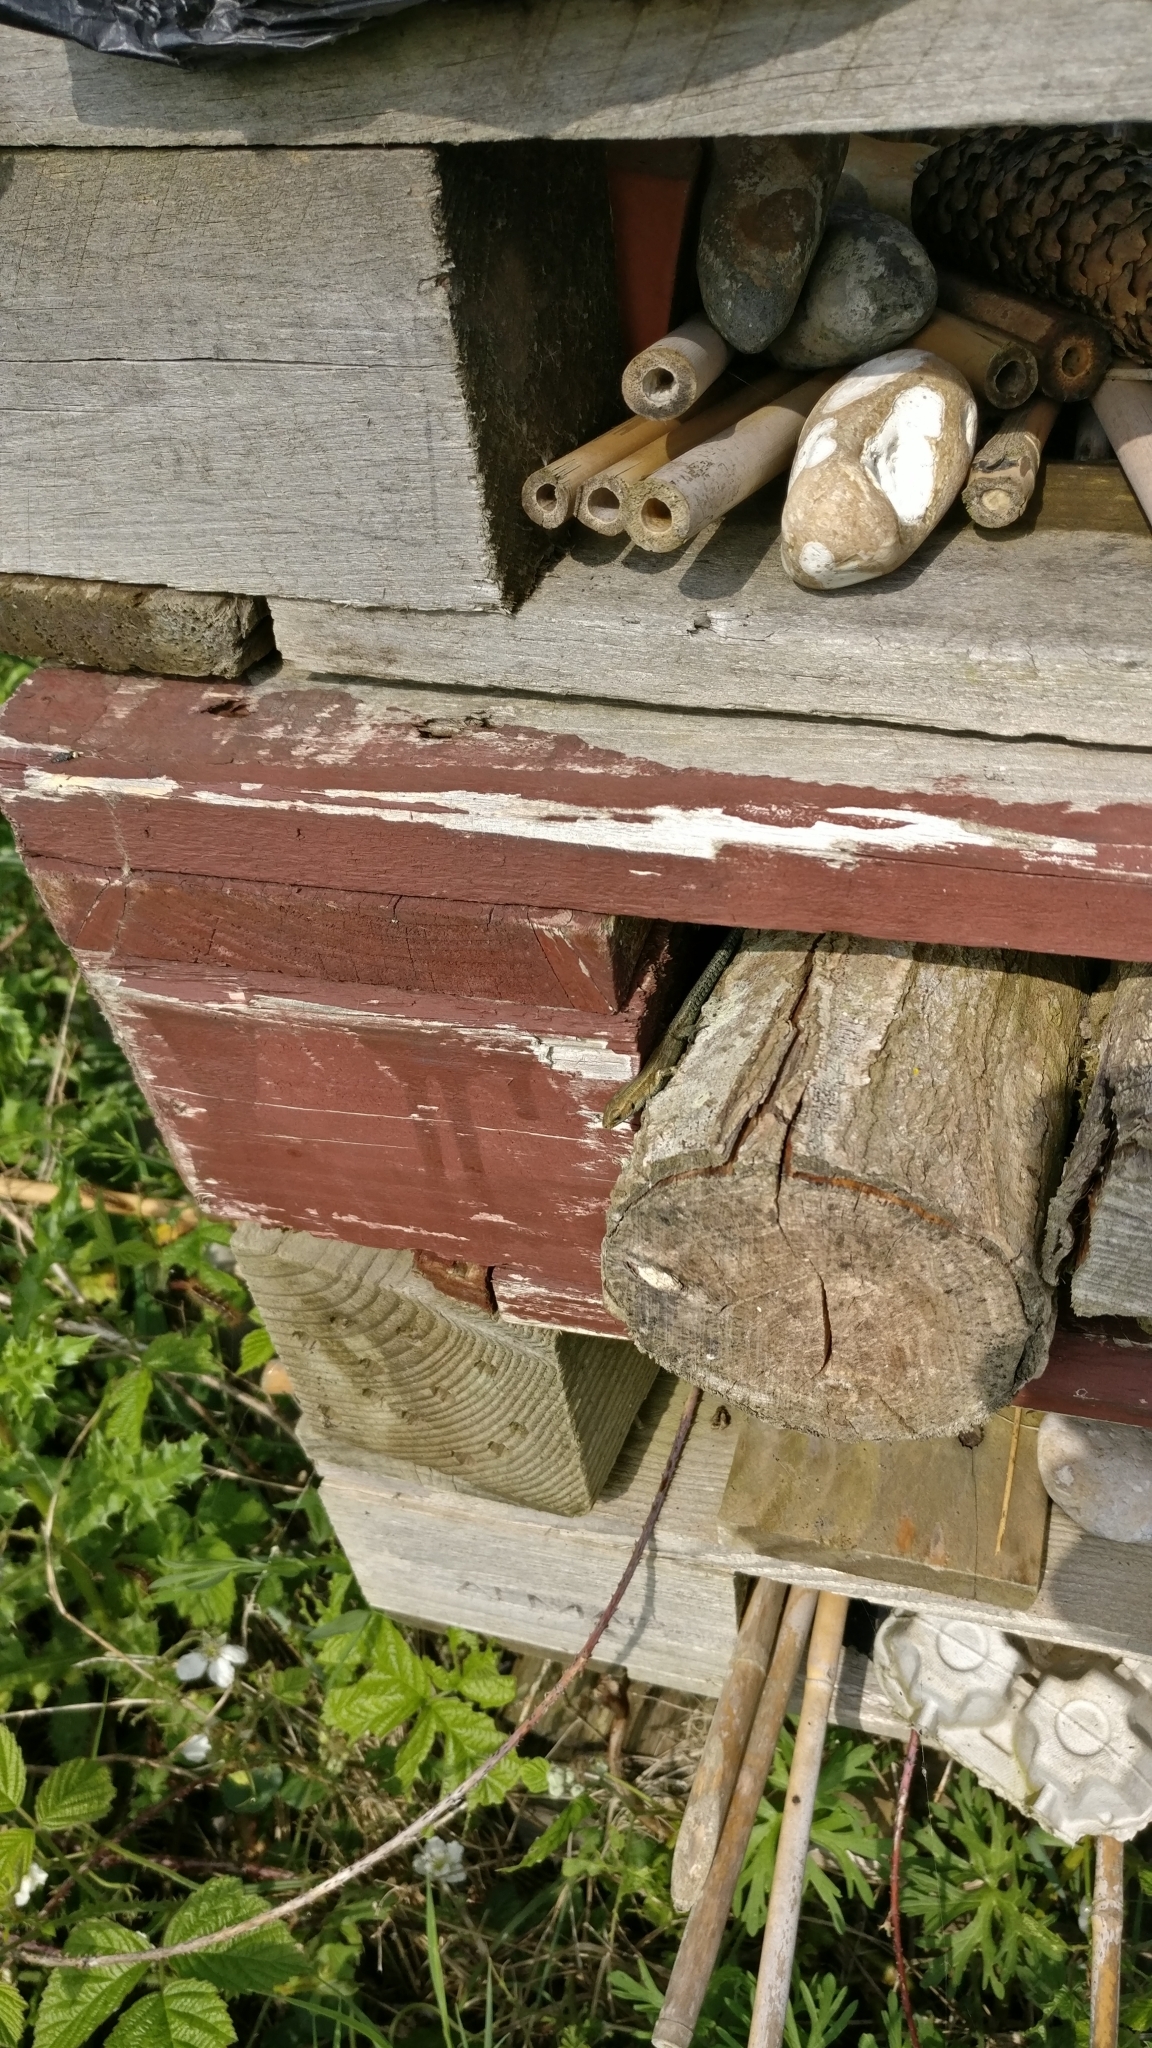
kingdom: Animalia
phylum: Chordata
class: Squamata
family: Lacertidae
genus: Zootoca
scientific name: Zootoca vivipara
